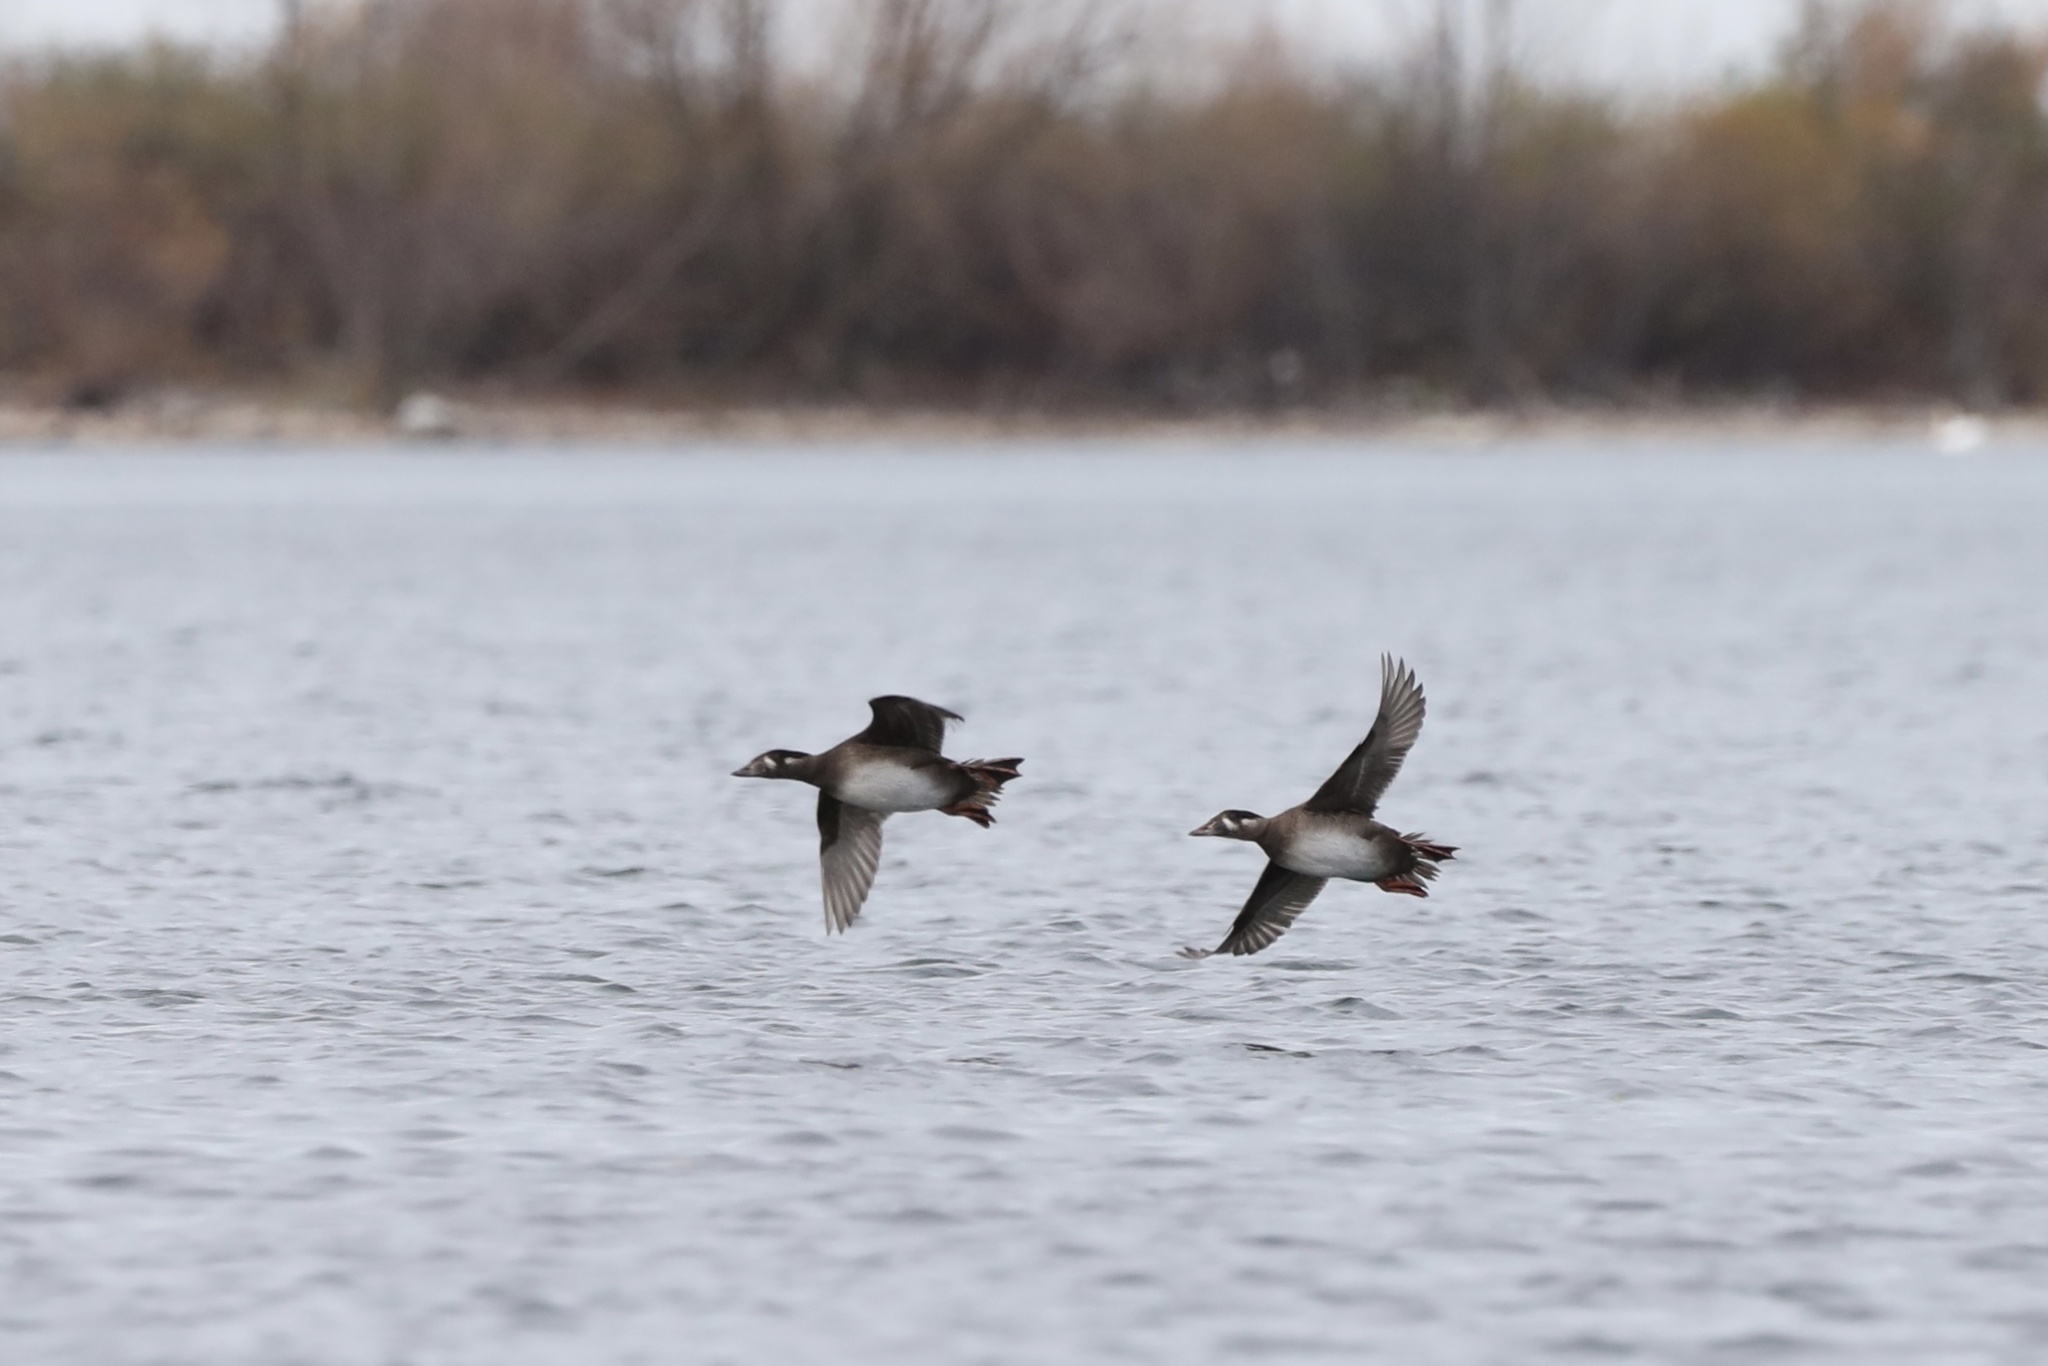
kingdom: Animalia
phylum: Chordata
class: Aves
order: Anseriformes
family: Anatidae
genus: Melanitta
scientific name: Melanitta perspicillata
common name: Surf scoter
